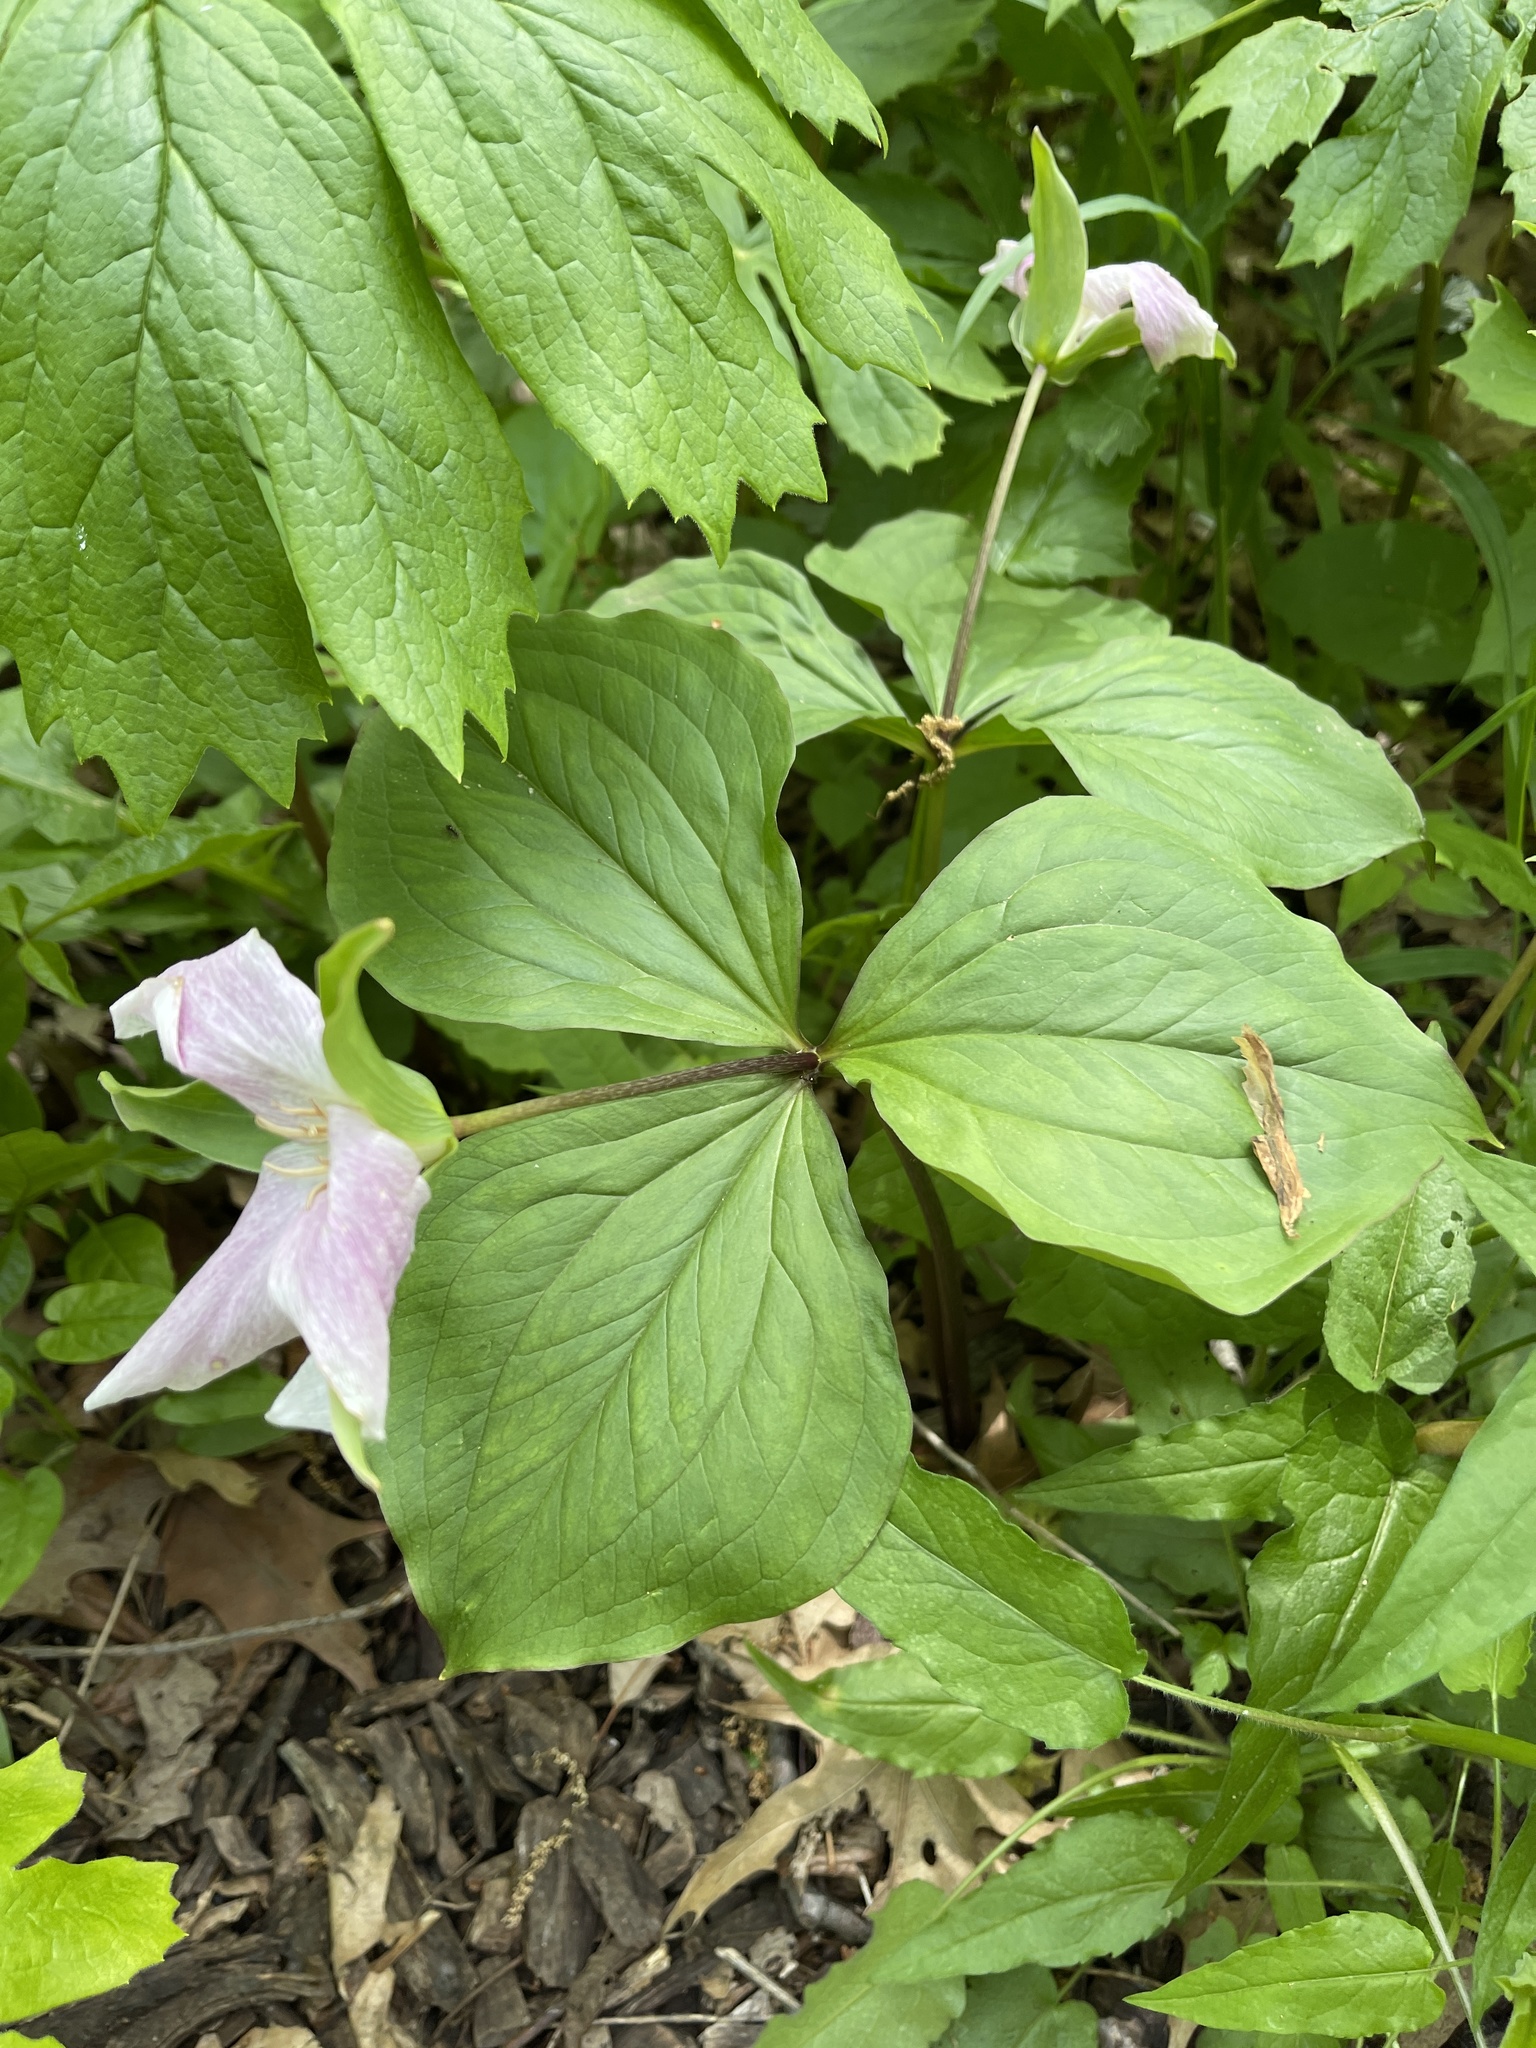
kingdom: Plantae
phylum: Tracheophyta
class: Liliopsida
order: Liliales
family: Melanthiaceae
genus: Trillium
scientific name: Trillium grandiflorum
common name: Great white trillium
